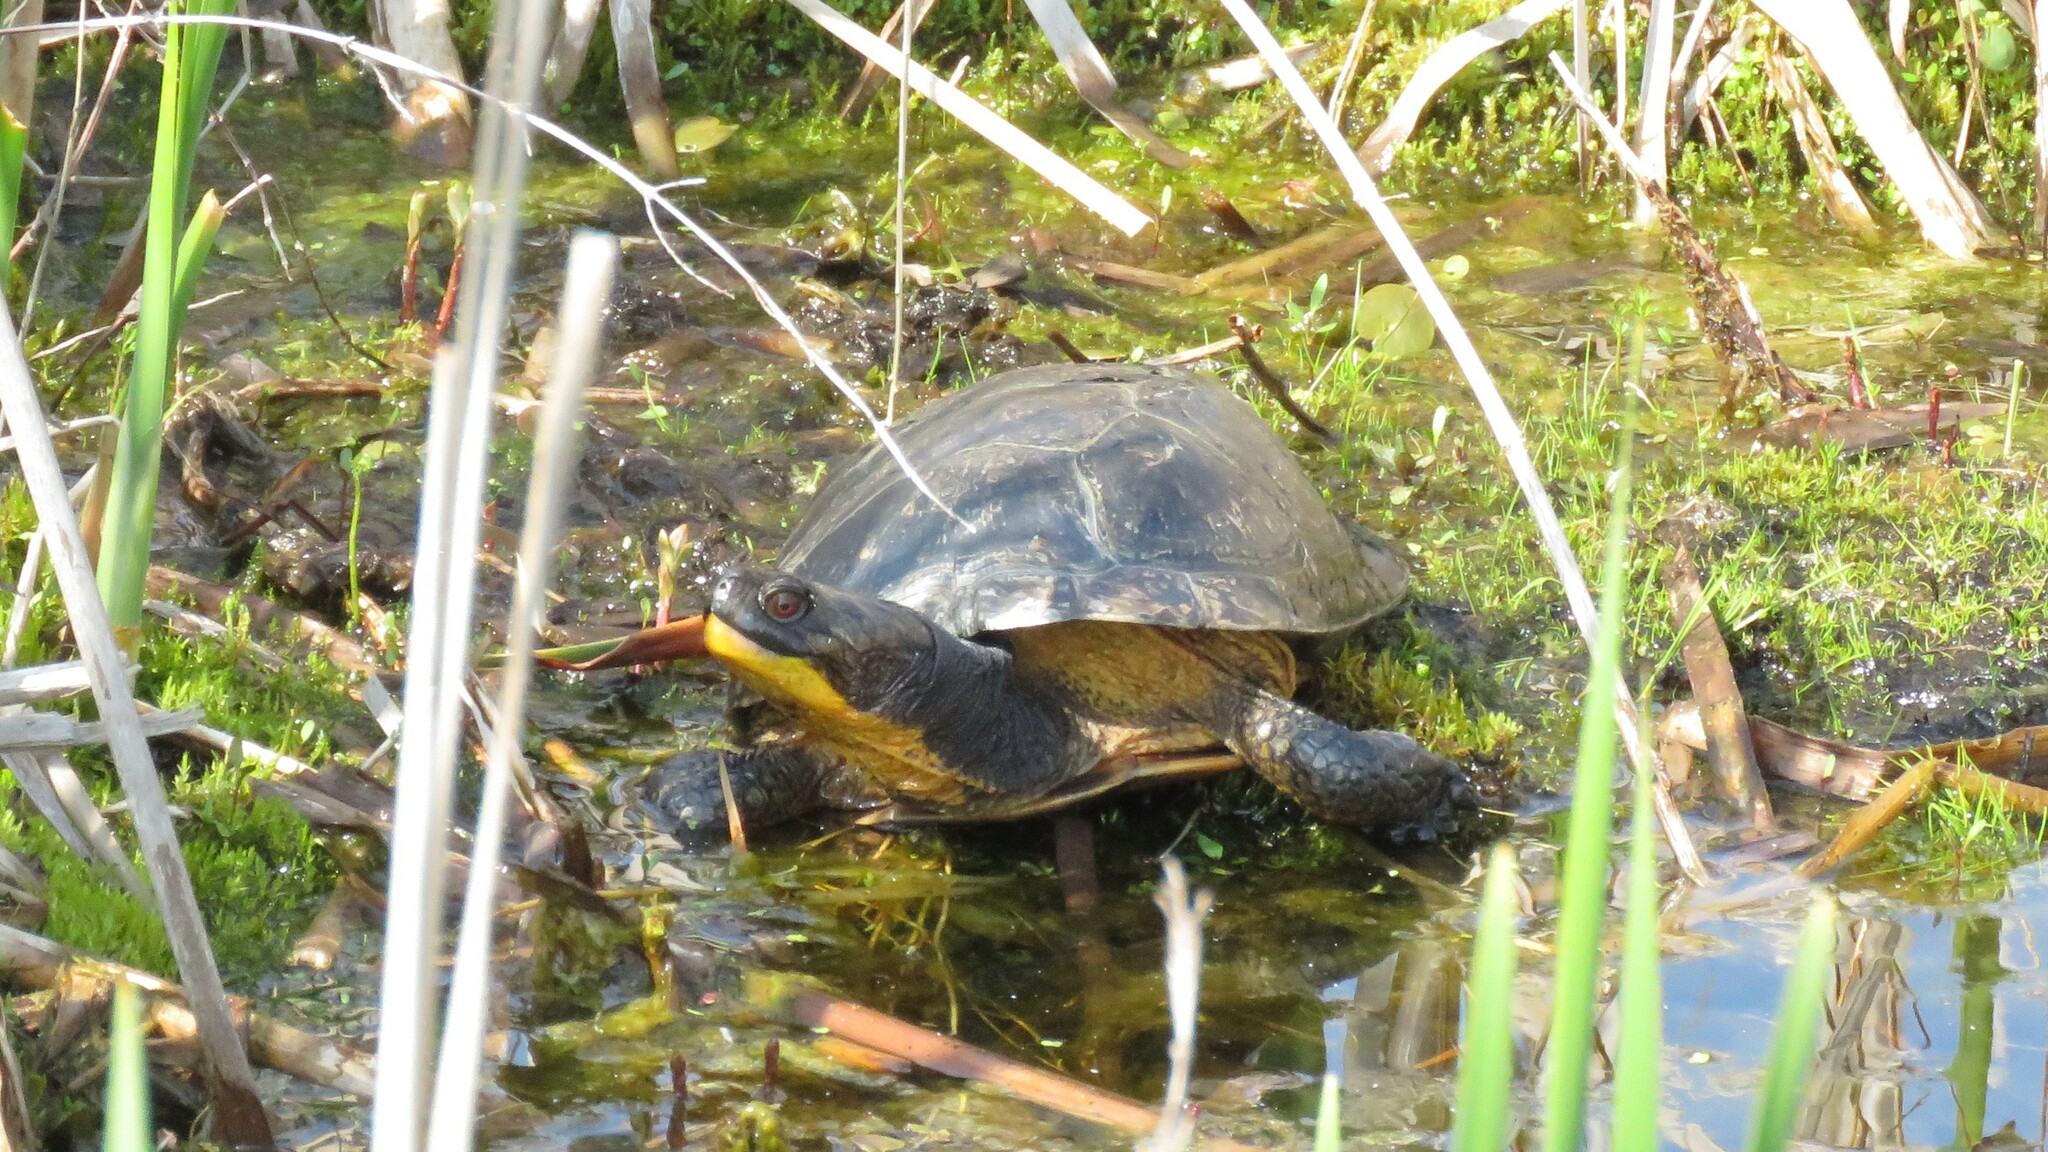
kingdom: Animalia
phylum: Chordata
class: Testudines
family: Emydidae
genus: Emys
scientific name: Emys blandingii
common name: Blanding's turtle
